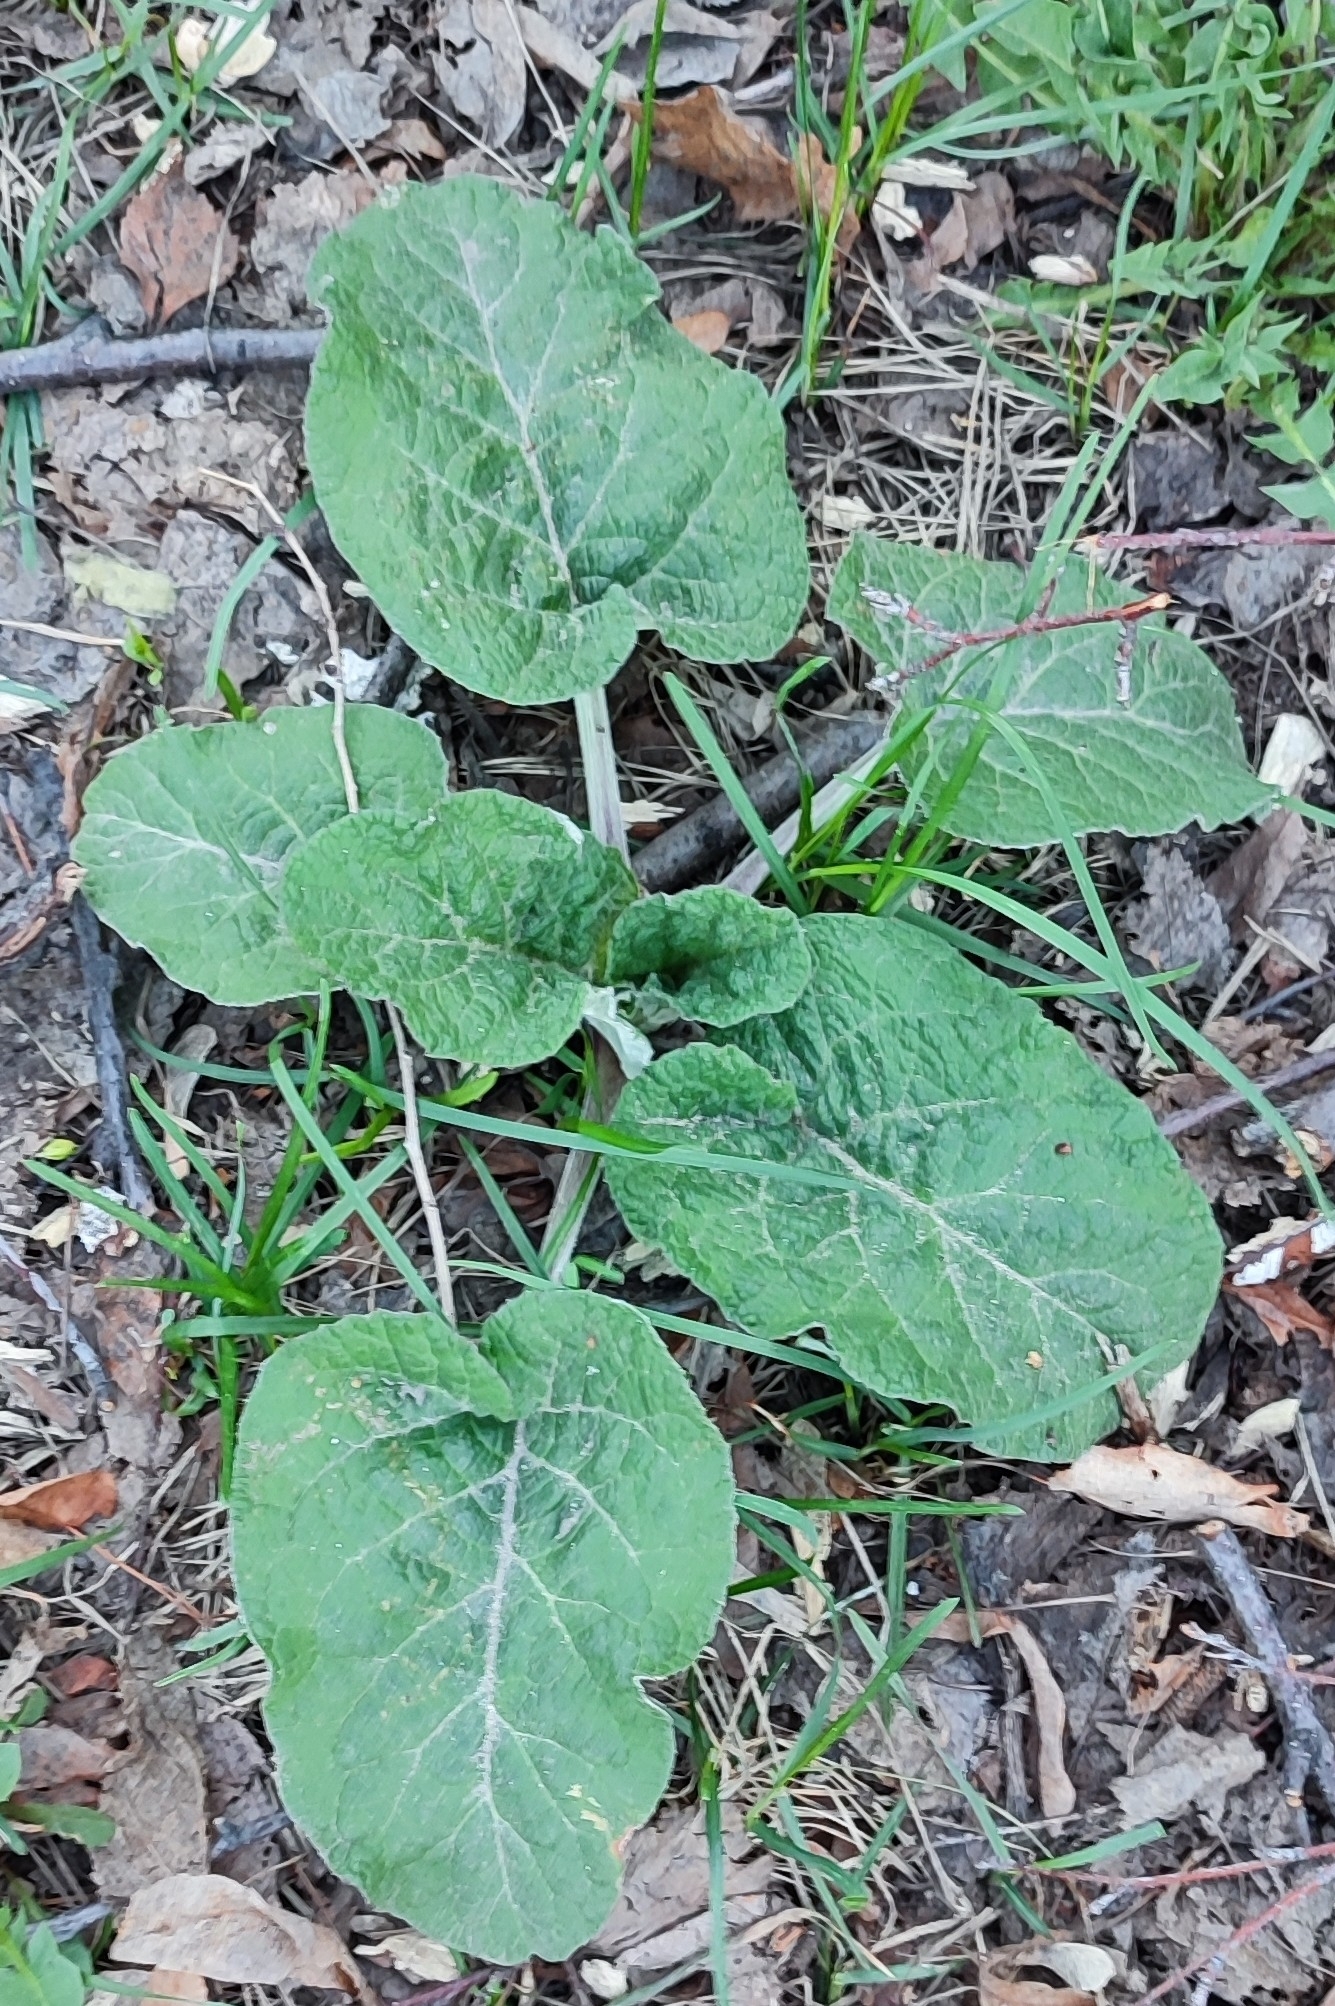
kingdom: Plantae
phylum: Tracheophyta
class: Magnoliopsida
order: Asterales
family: Asteraceae
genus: Arctium
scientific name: Arctium tomentosum
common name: Woolly burdock
